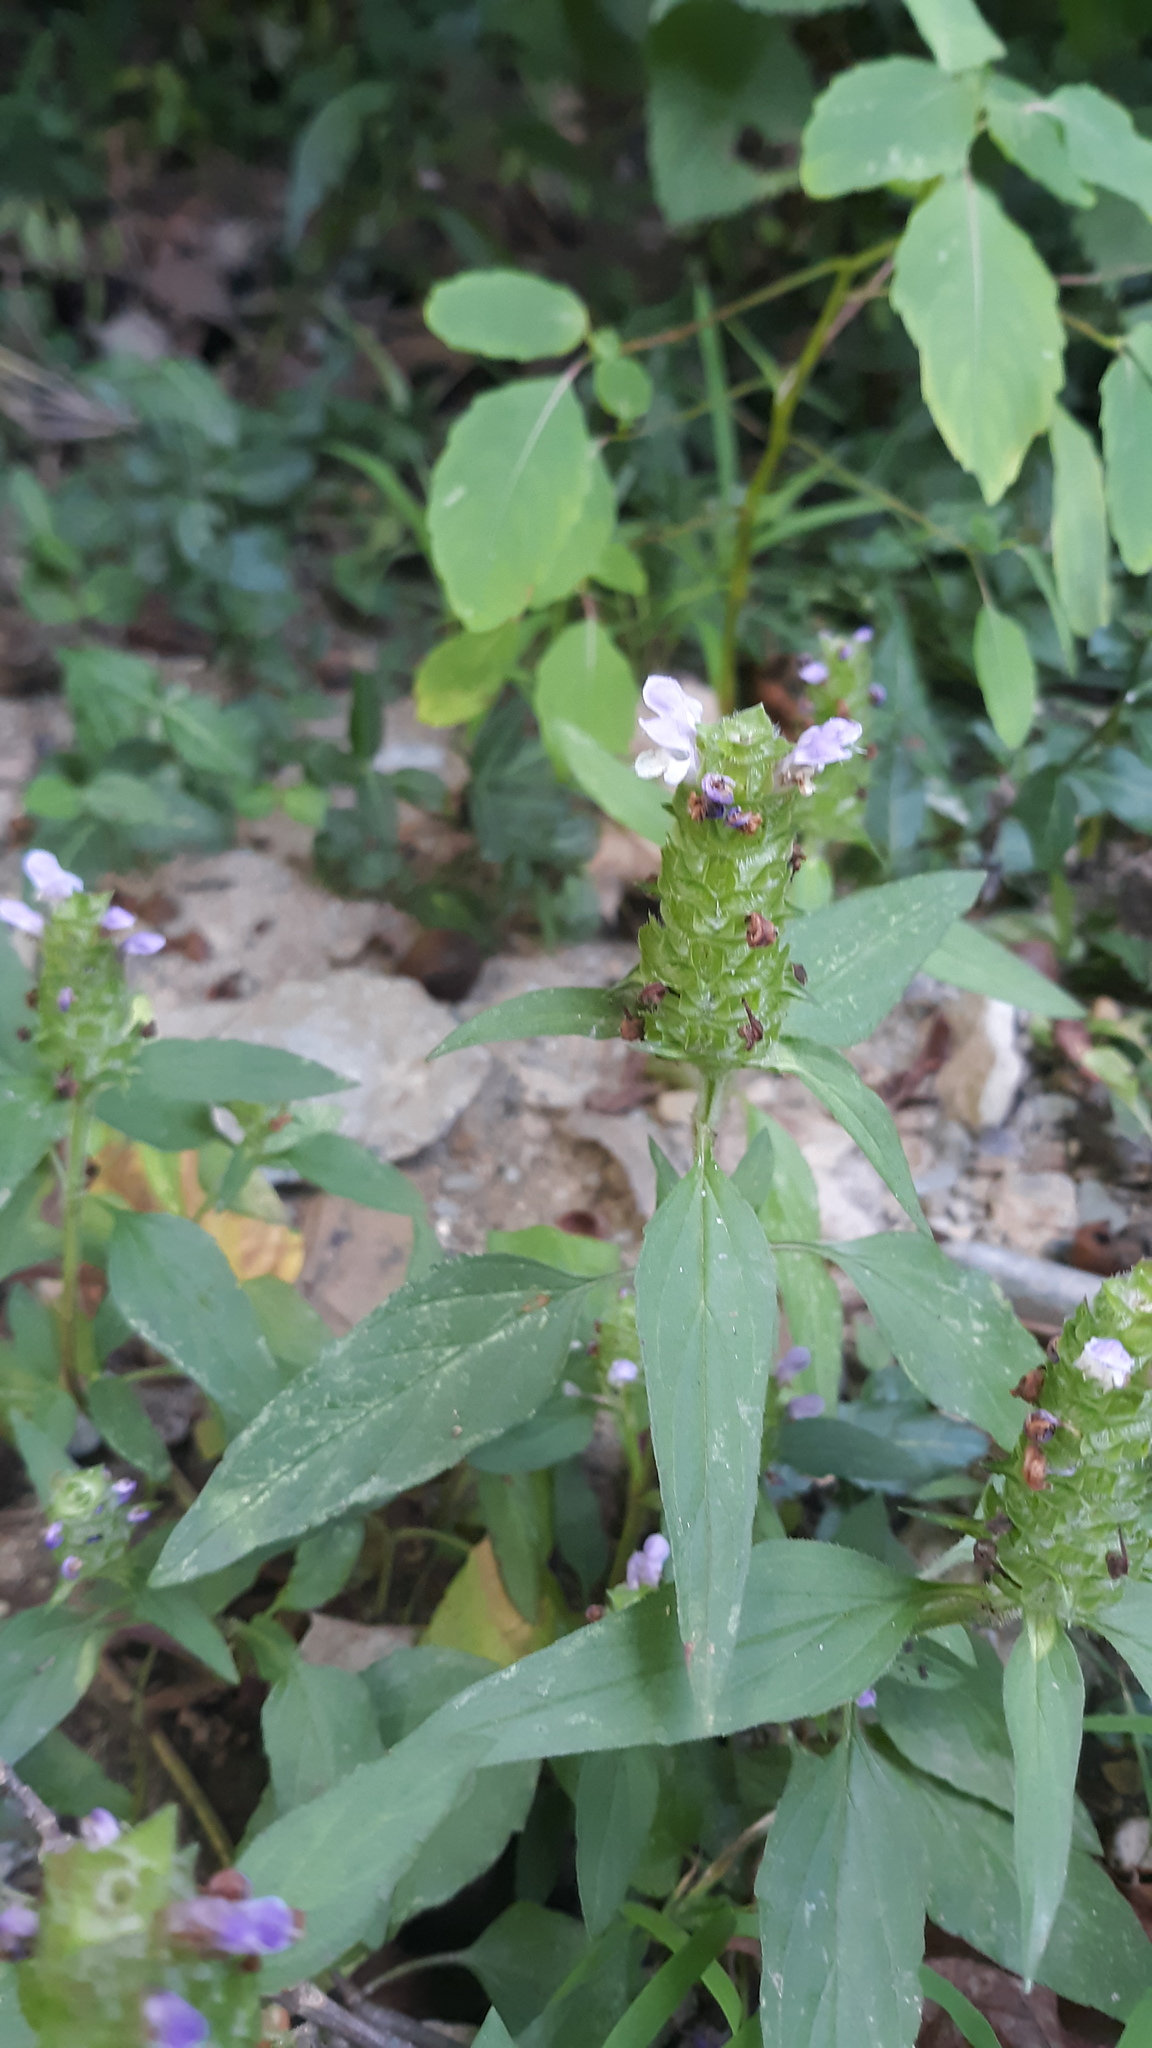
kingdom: Plantae
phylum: Tracheophyta
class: Magnoliopsida
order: Lamiales
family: Lamiaceae
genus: Prunella
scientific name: Prunella vulgaris
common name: Heal-all
